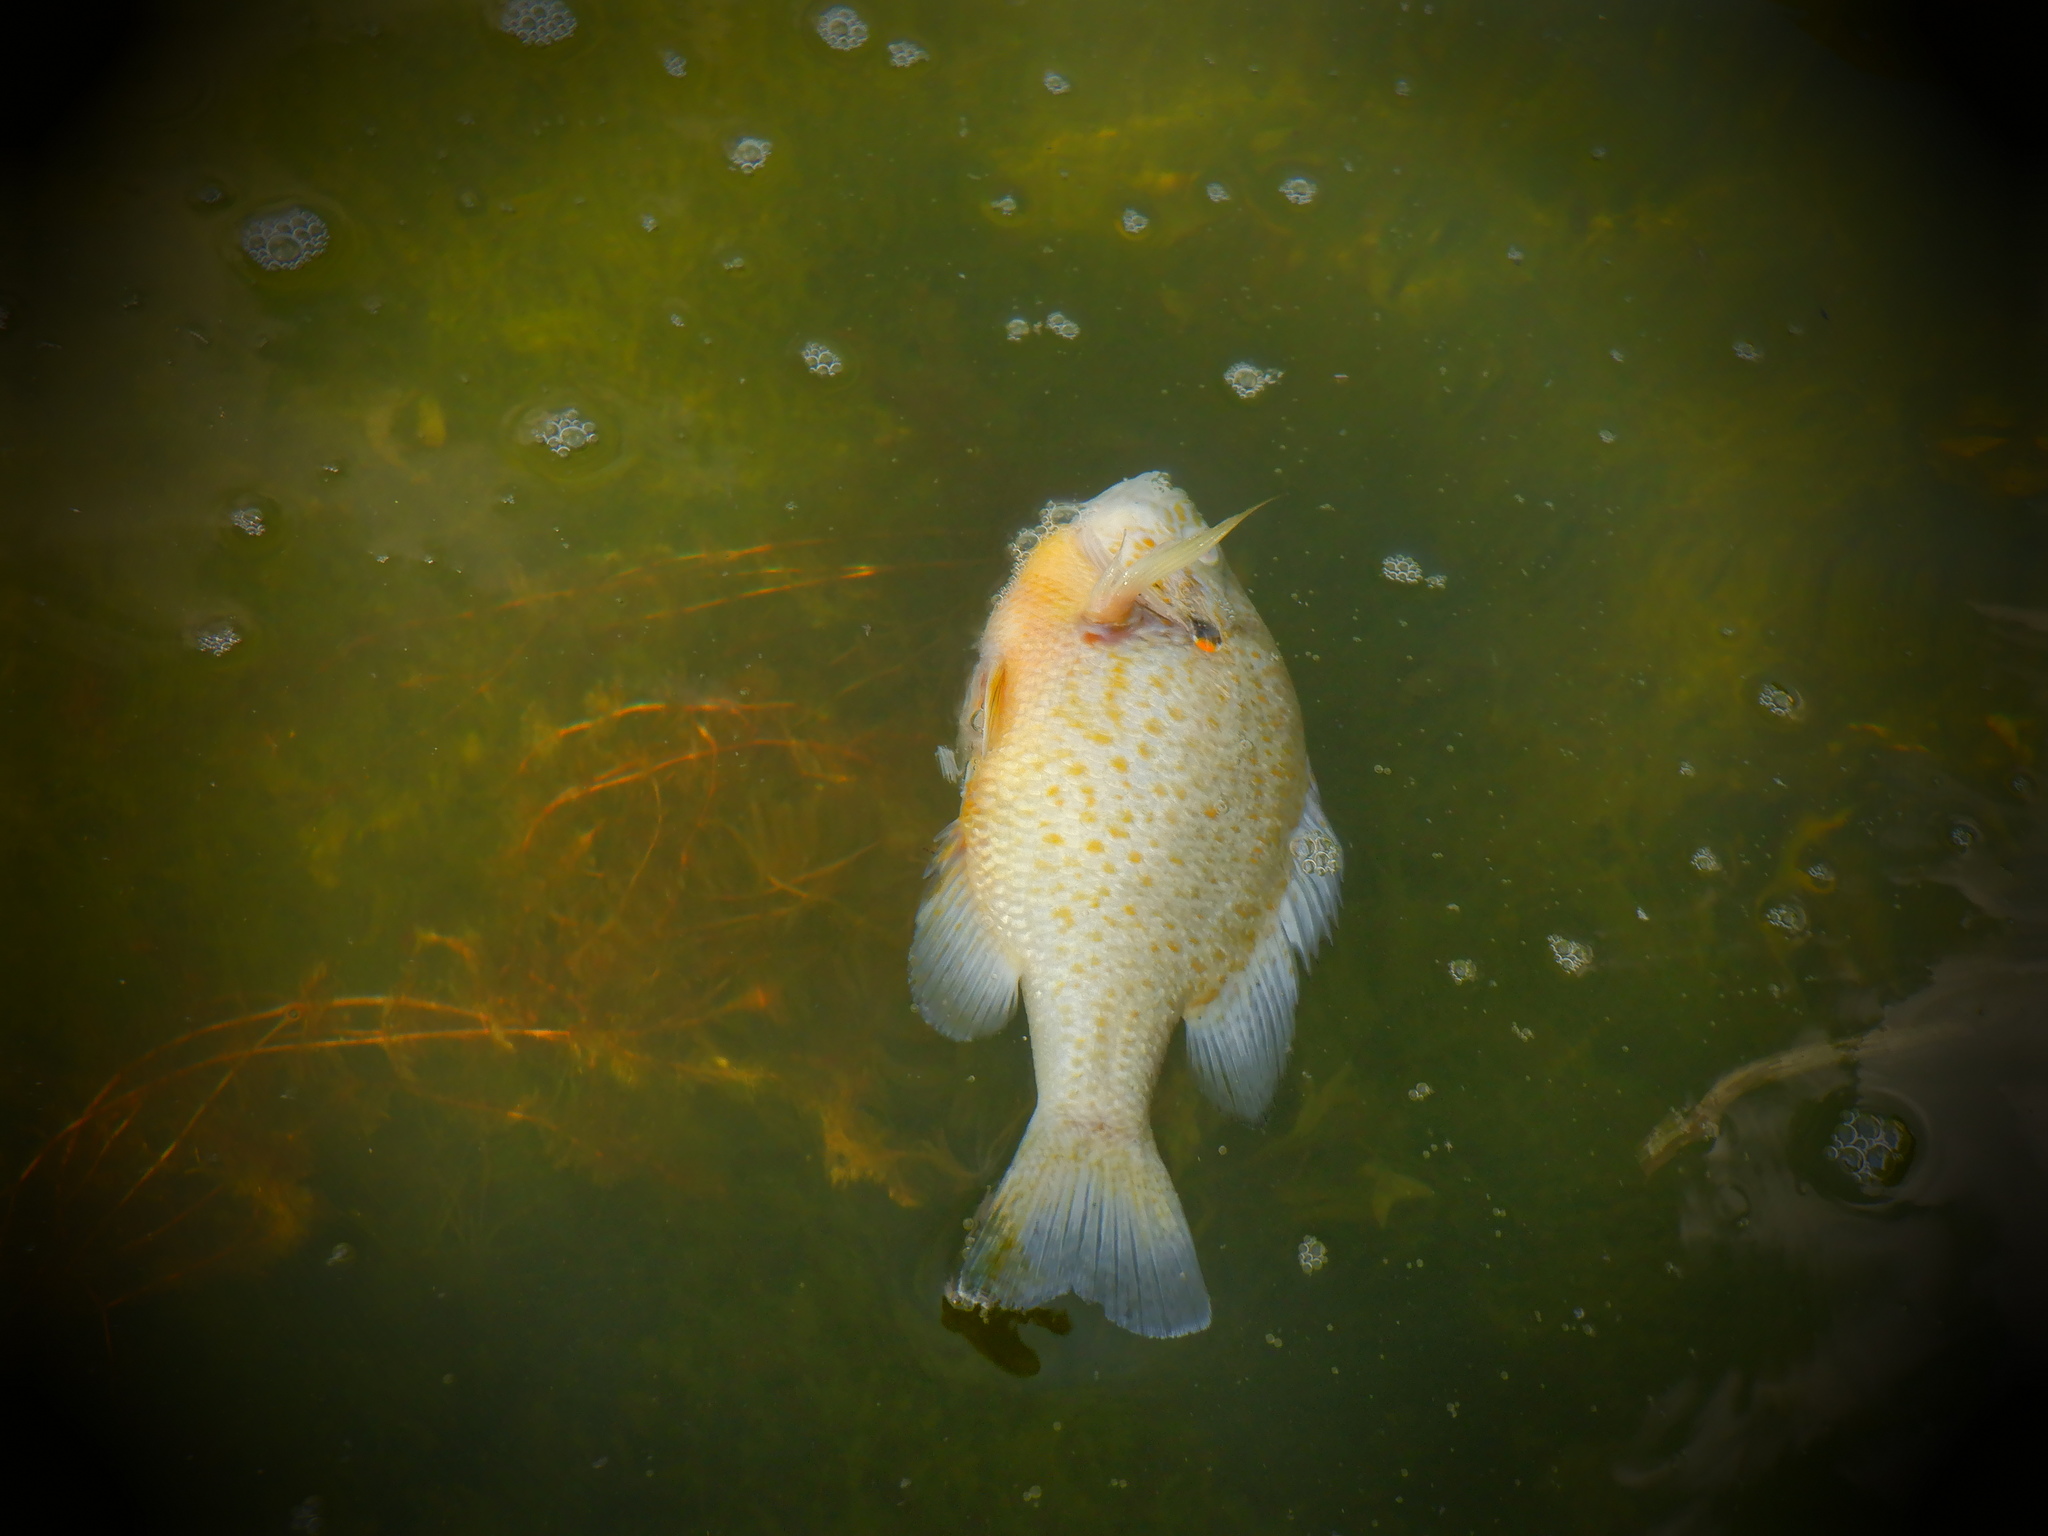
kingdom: Animalia
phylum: Chordata
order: Perciformes
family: Centrarchidae
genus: Lepomis
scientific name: Lepomis gibbosus
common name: Pumpkinseed
